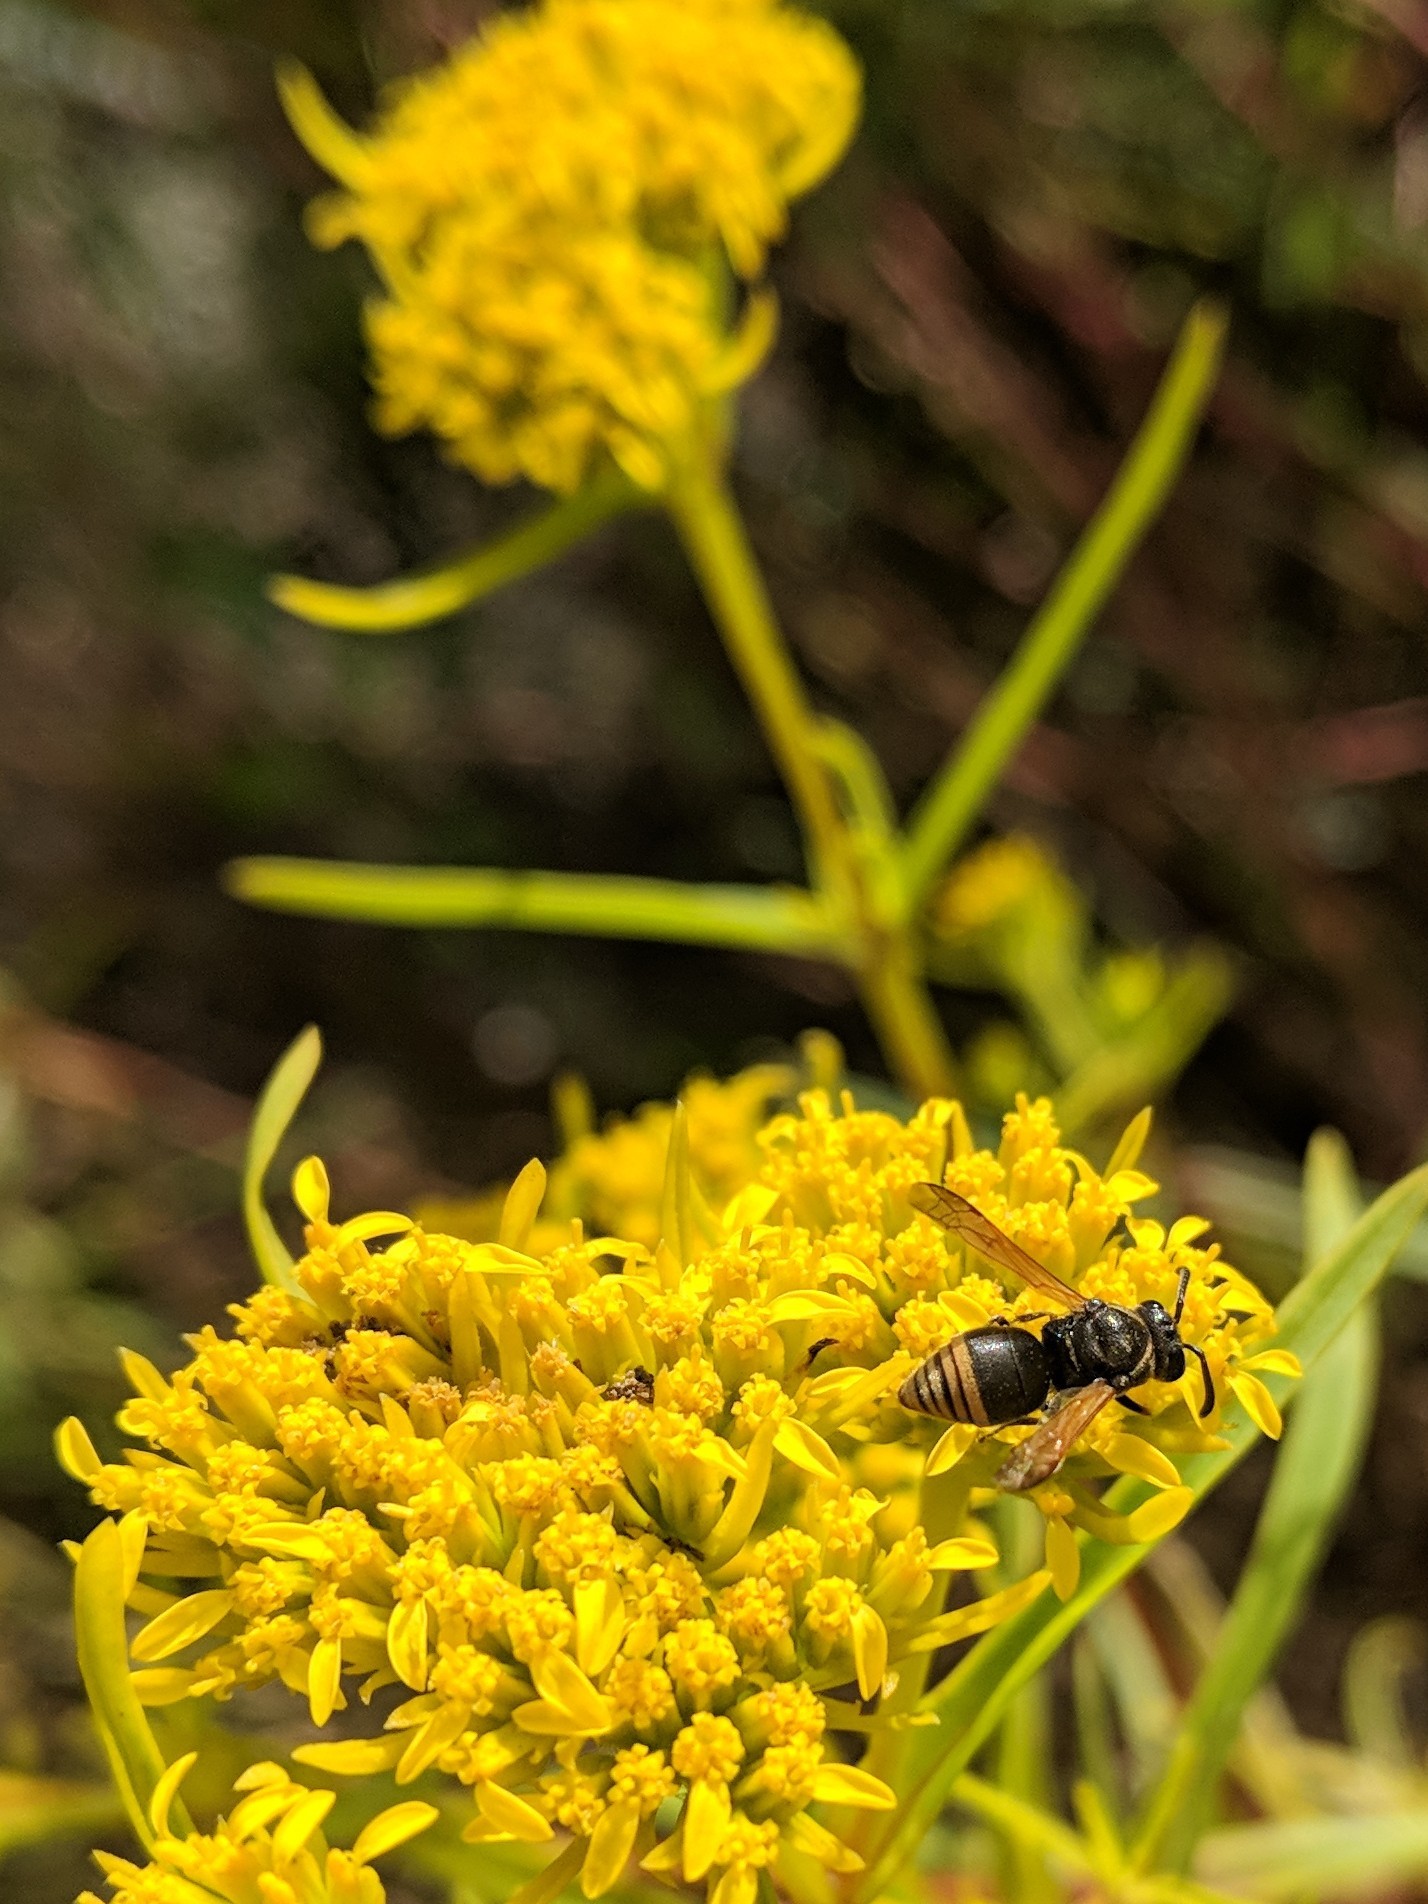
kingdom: Animalia
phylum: Arthropoda
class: Insecta
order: Hymenoptera
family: Eumenidae
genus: Pachodynerus
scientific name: Pachodynerus nasidens
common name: Key hole wasp
